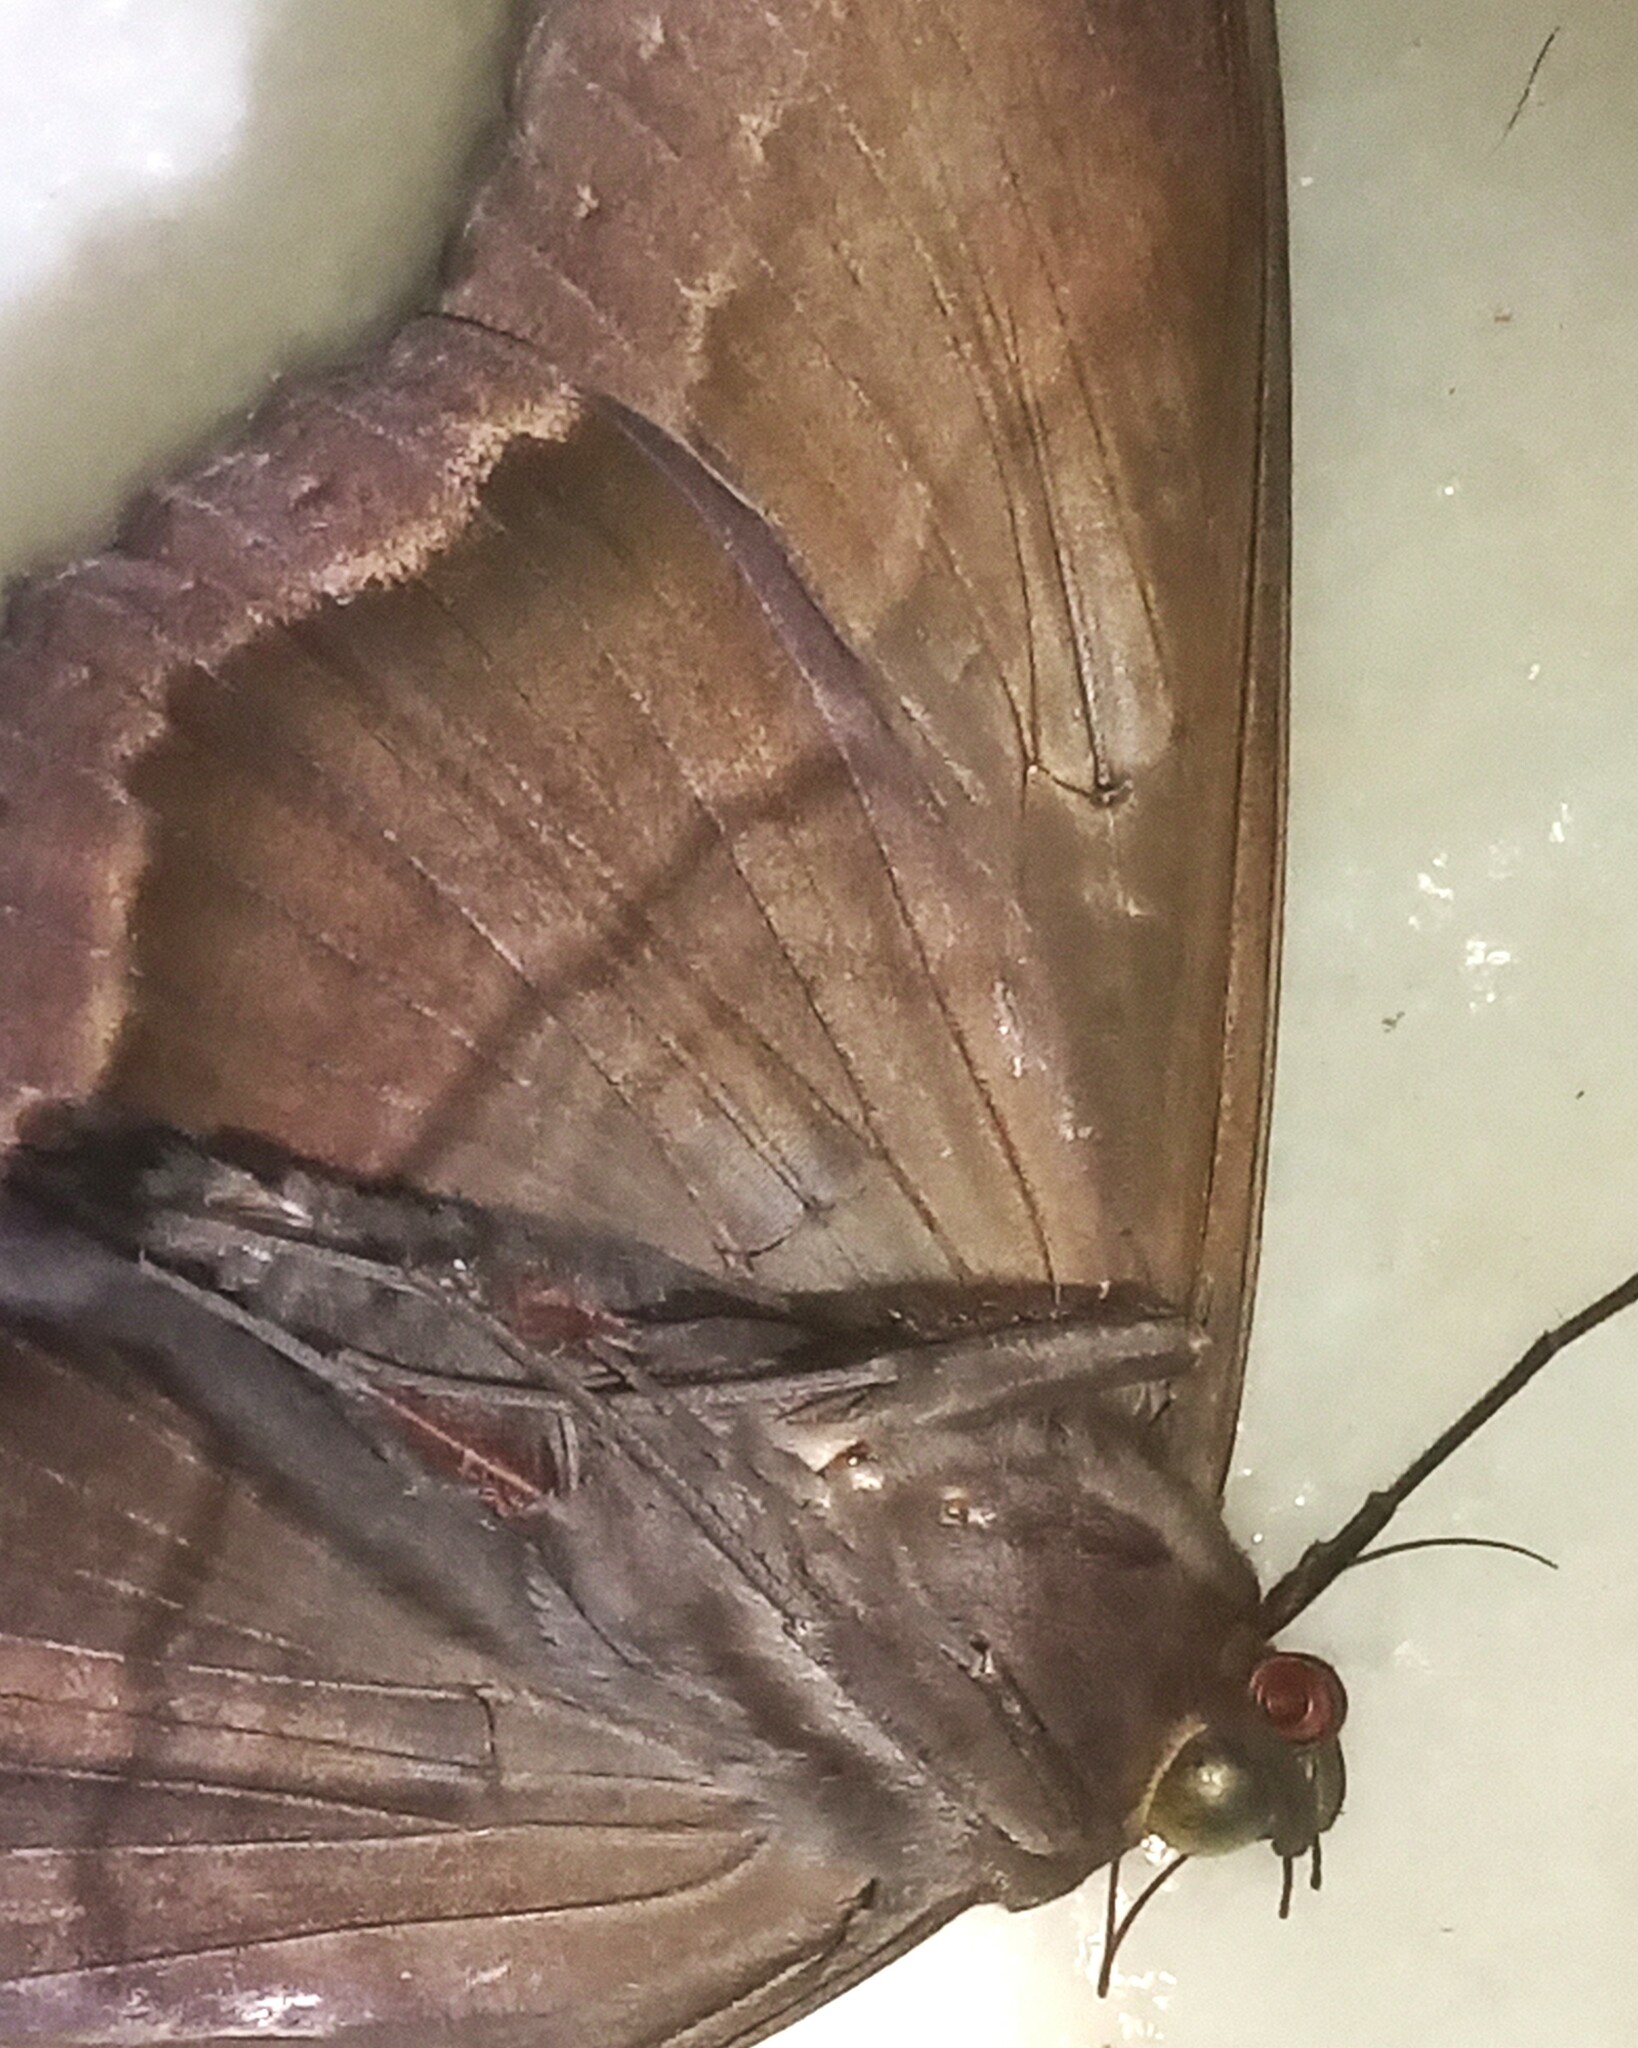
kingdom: Animalia
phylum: Arthropoda
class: Insecta
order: Lepidoptera
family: Erebidae
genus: Ascalapha
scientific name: Ascalapha odorata
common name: Black witch
